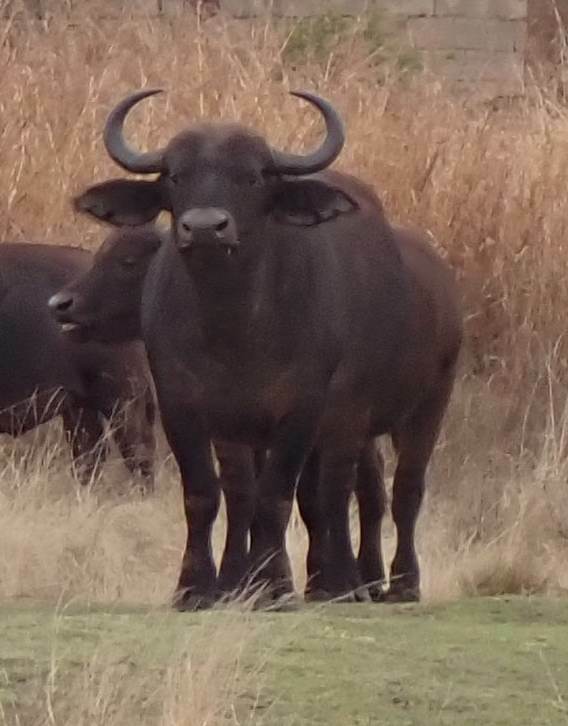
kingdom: Animalia
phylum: Chordata
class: Mammalia
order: Artiodactyla
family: Bovidae
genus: Syncerus
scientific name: Syncerus caffer
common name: African buffalo
